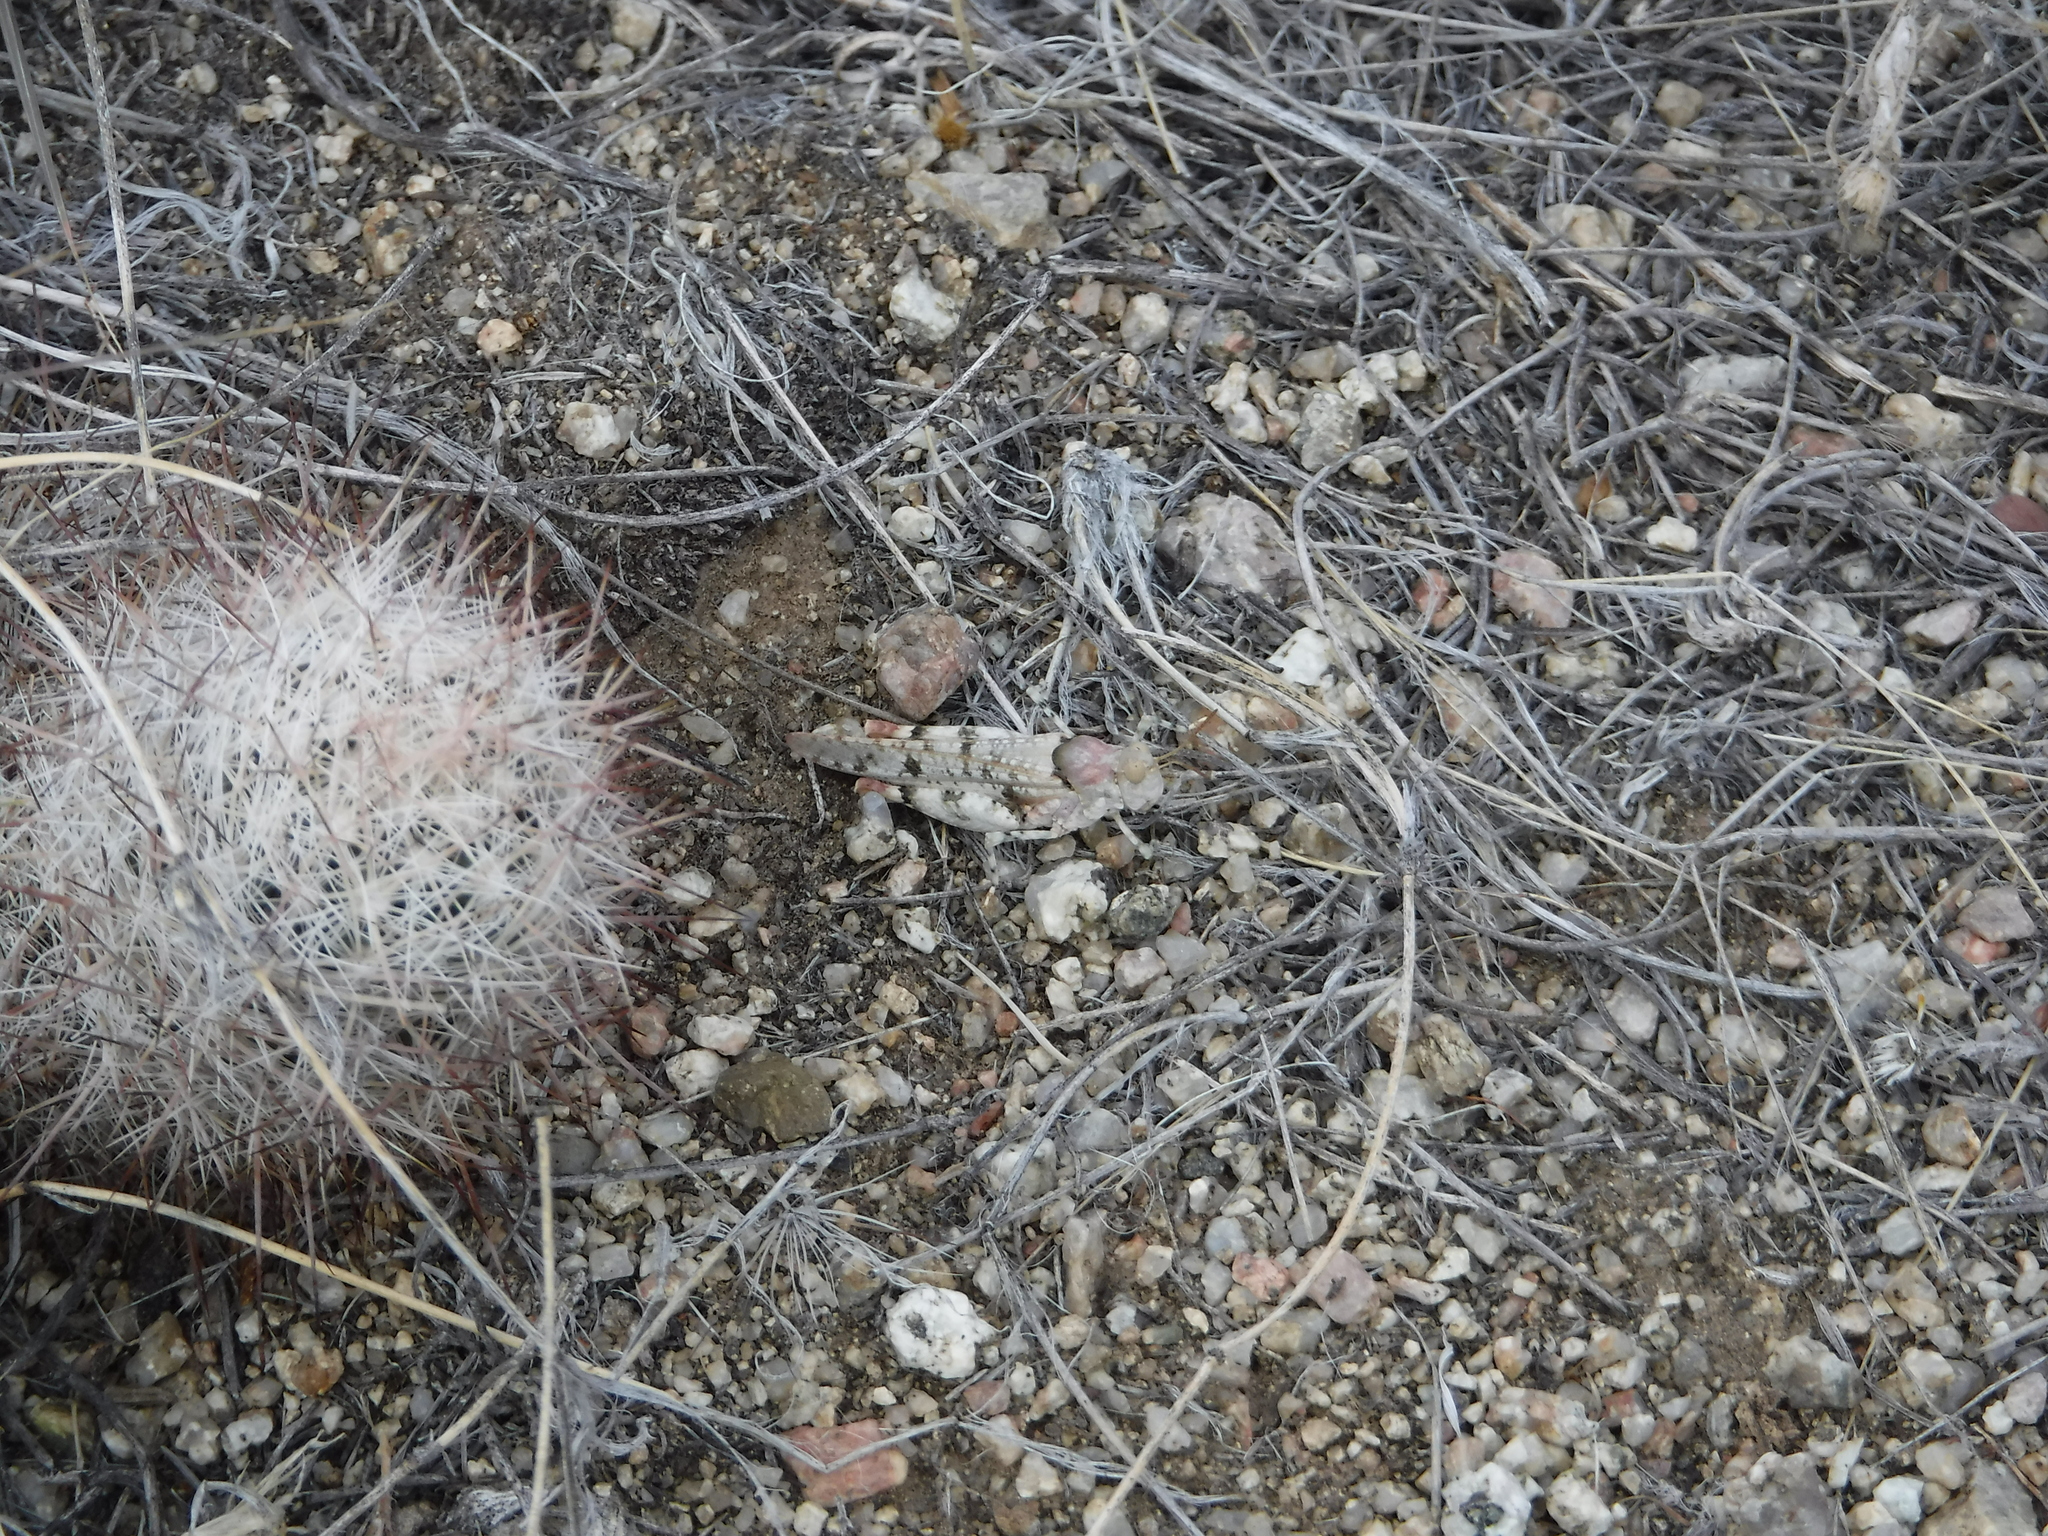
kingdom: Plantae
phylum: Tracheophyta
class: Magnoliopsida
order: Caryophyllales
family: Cactaceae
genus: Pelecyphora
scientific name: Pelecyphora vivipara
